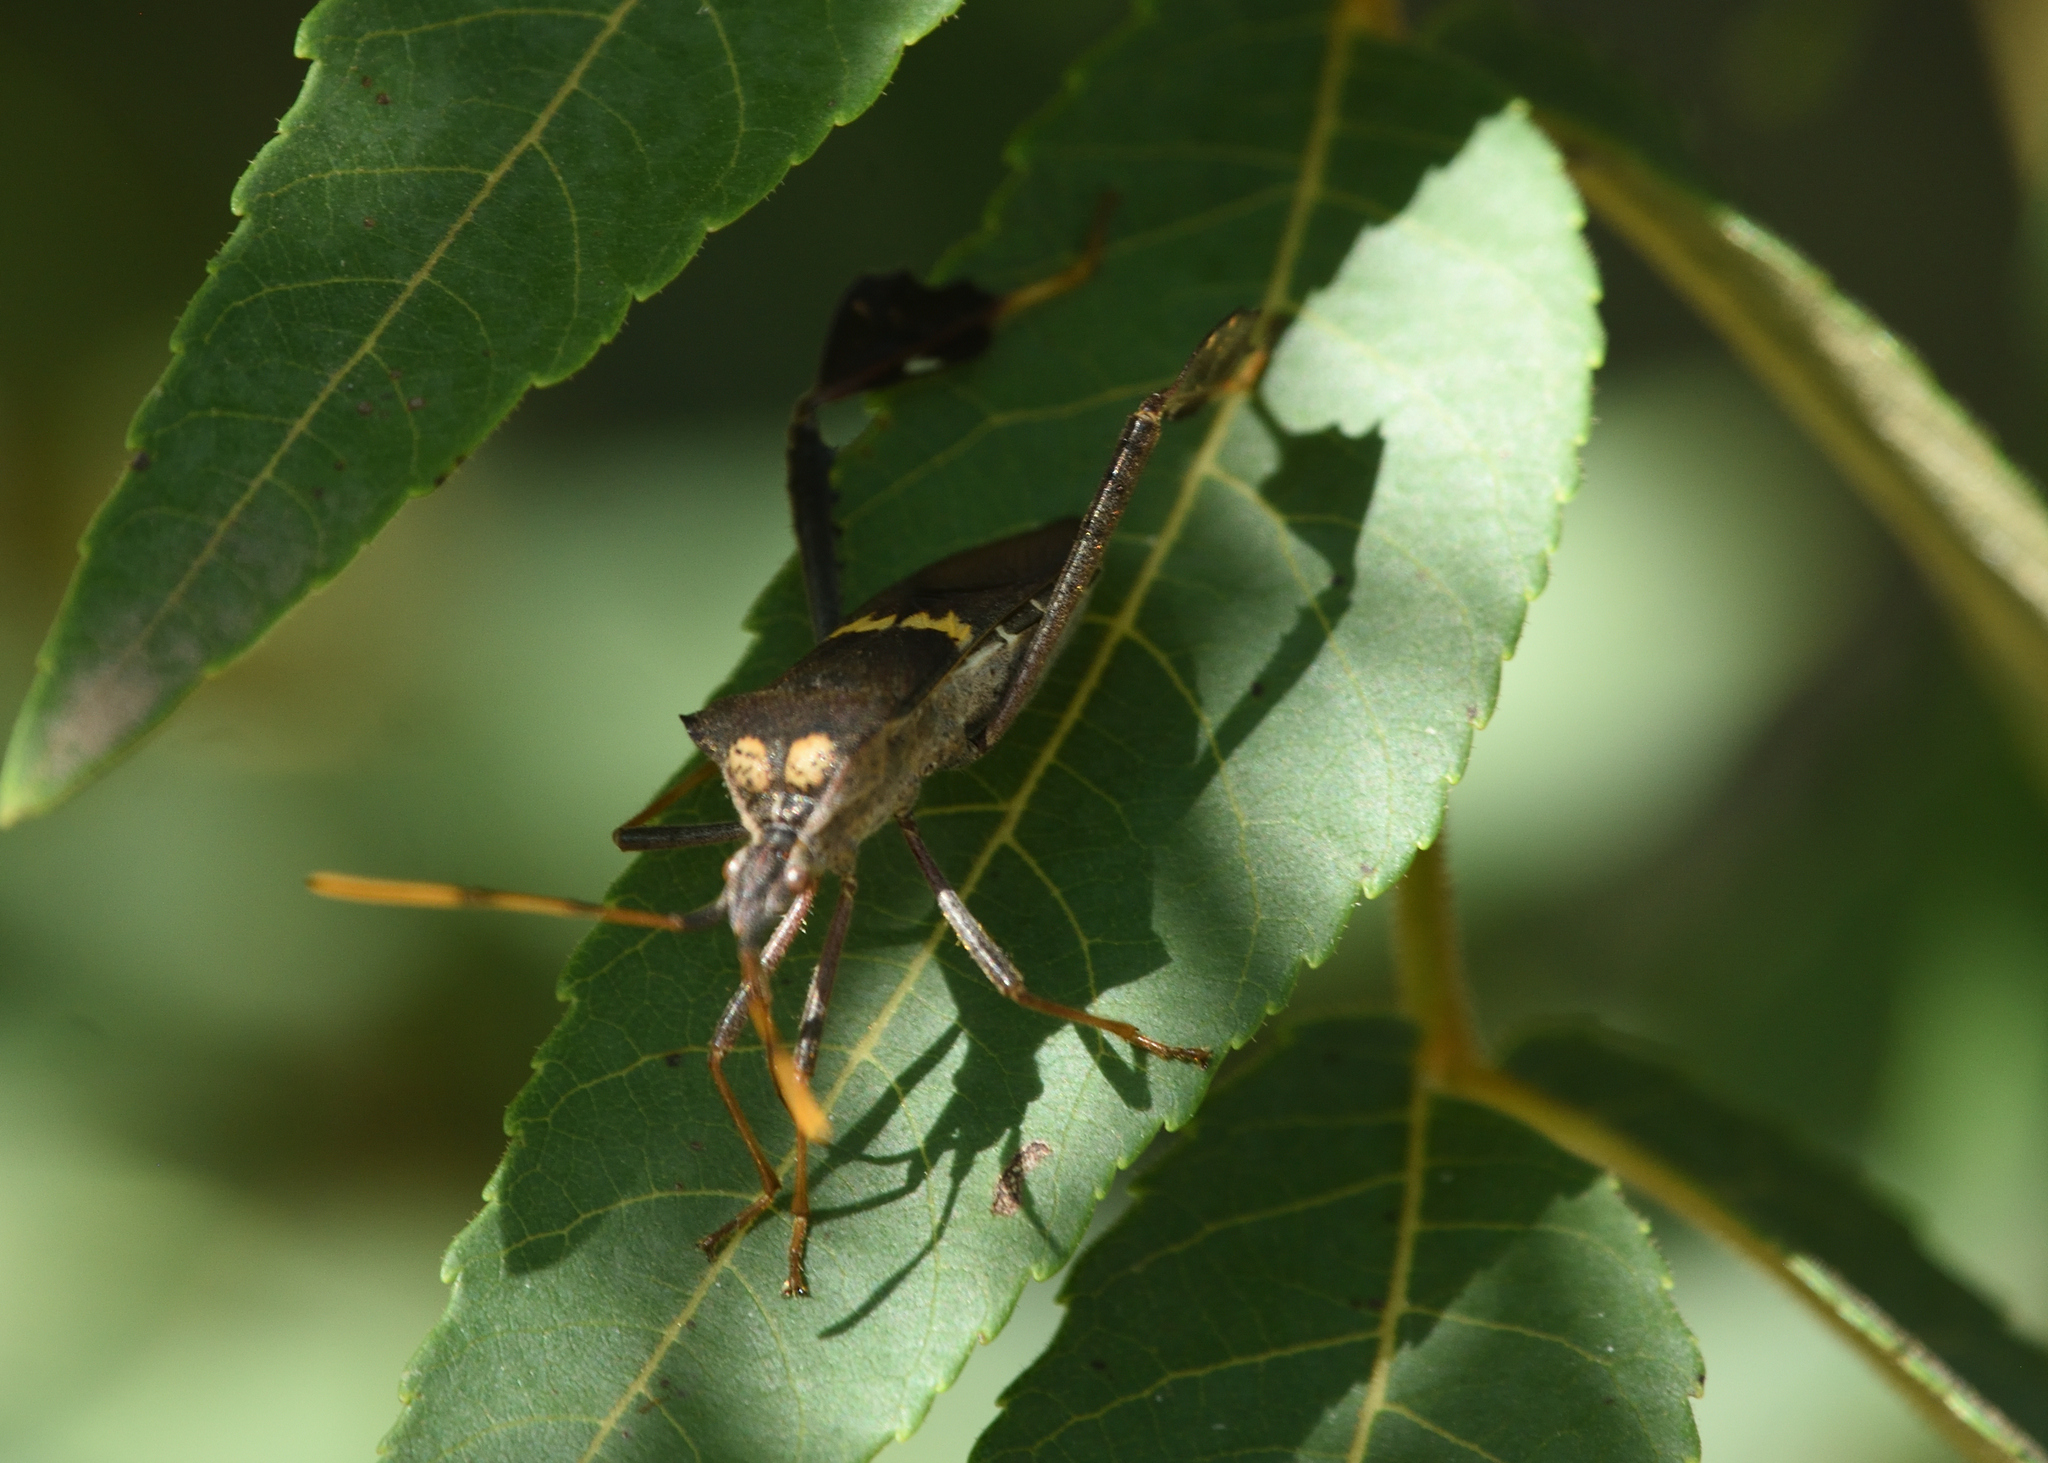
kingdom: Animalia
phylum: Arthropoda
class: Insecta
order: Hemiptera
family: Coreidae
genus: Leptoglossus
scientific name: Leptoglossus zonatus
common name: Large-legged bug
